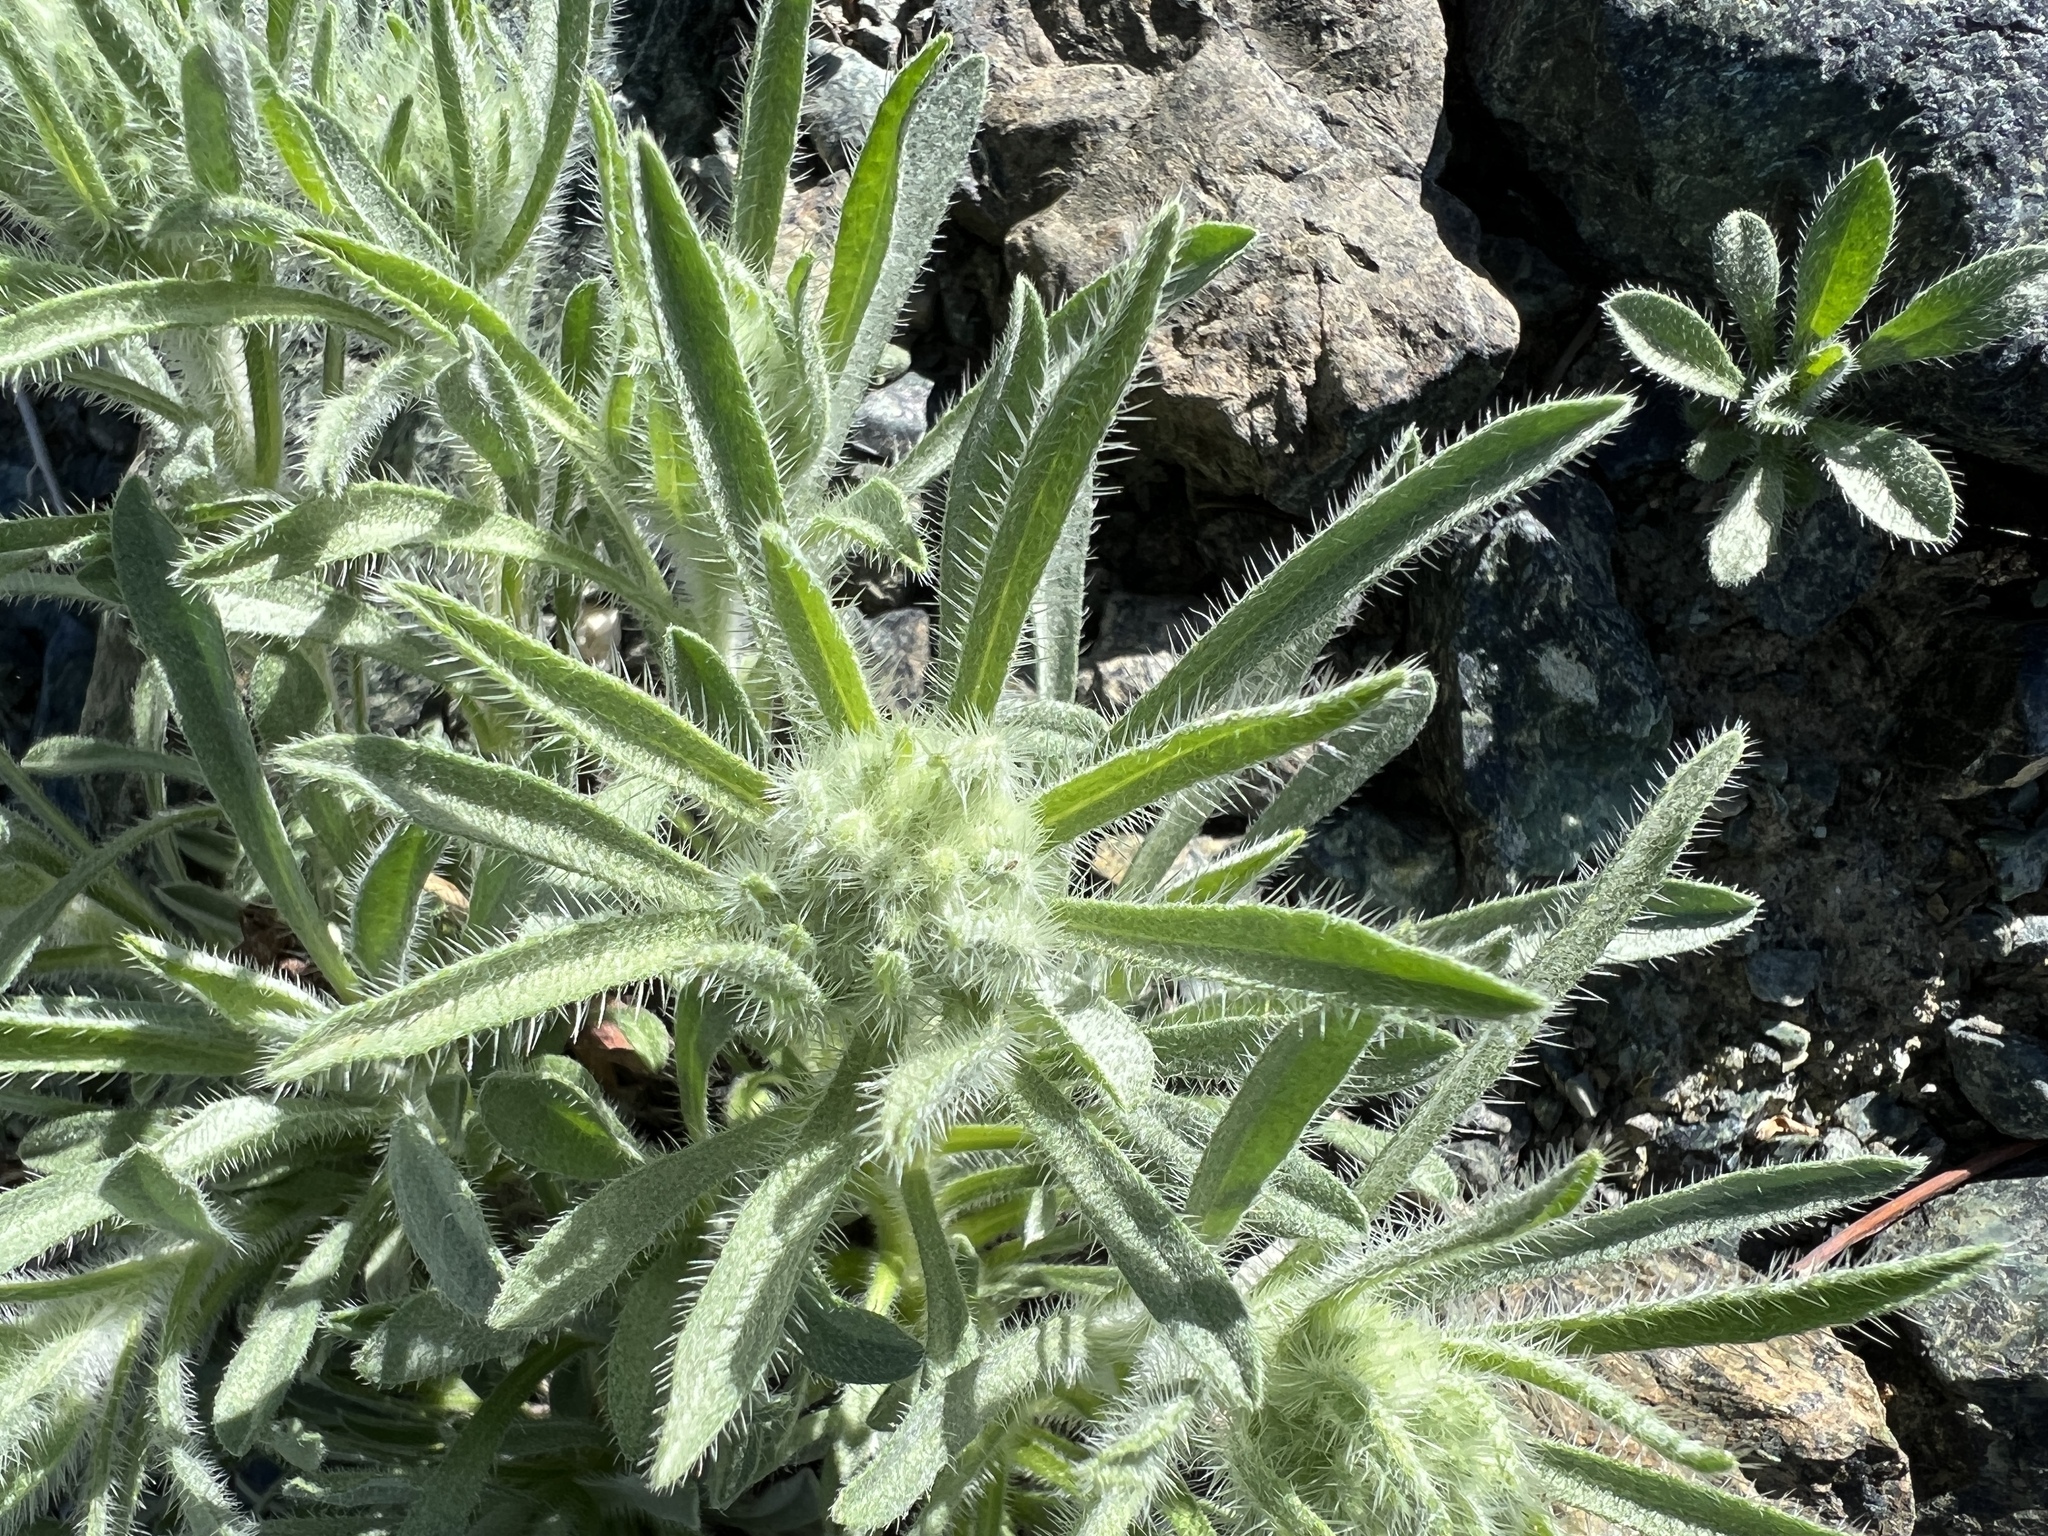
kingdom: Plantae
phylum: Tracheophyta
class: Magnoliopsida
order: Boraginales
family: Boraginaceae
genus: Oreocarya
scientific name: Oreocarya thompsonii
